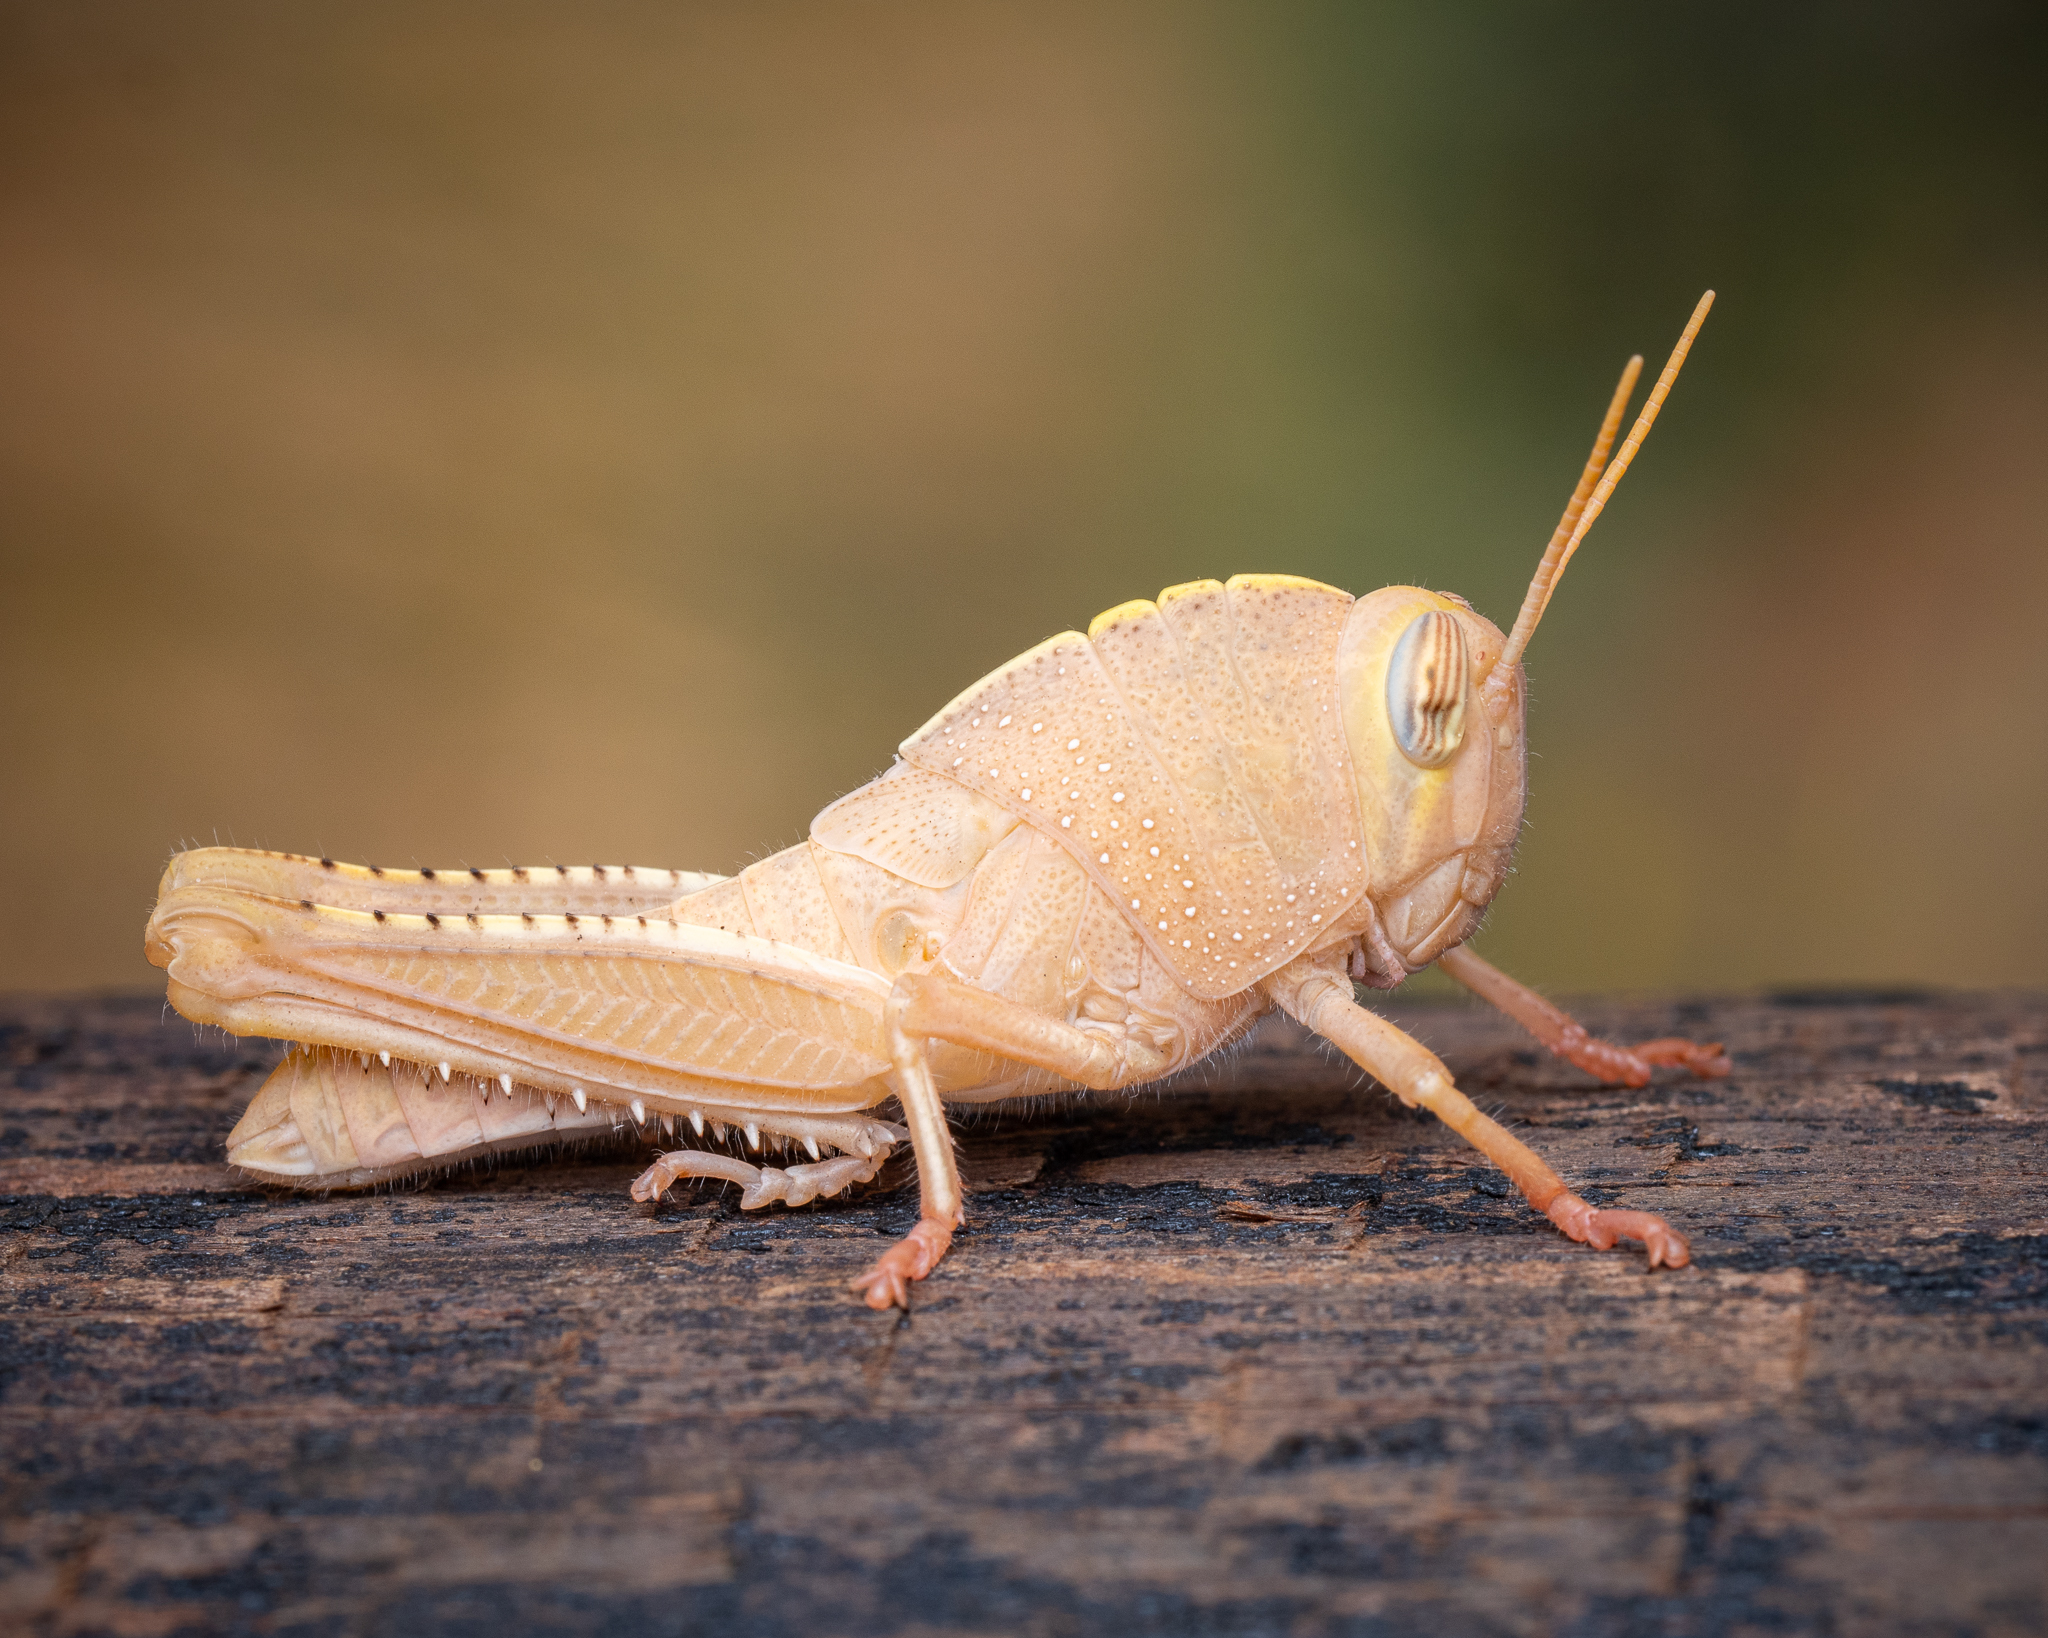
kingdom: Animalia
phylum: Arthropoda
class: Insecta
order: Orthoptera
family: Acrididae
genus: Anacridium
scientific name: Anacridium aegyptium
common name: Egyptian grasshopper
